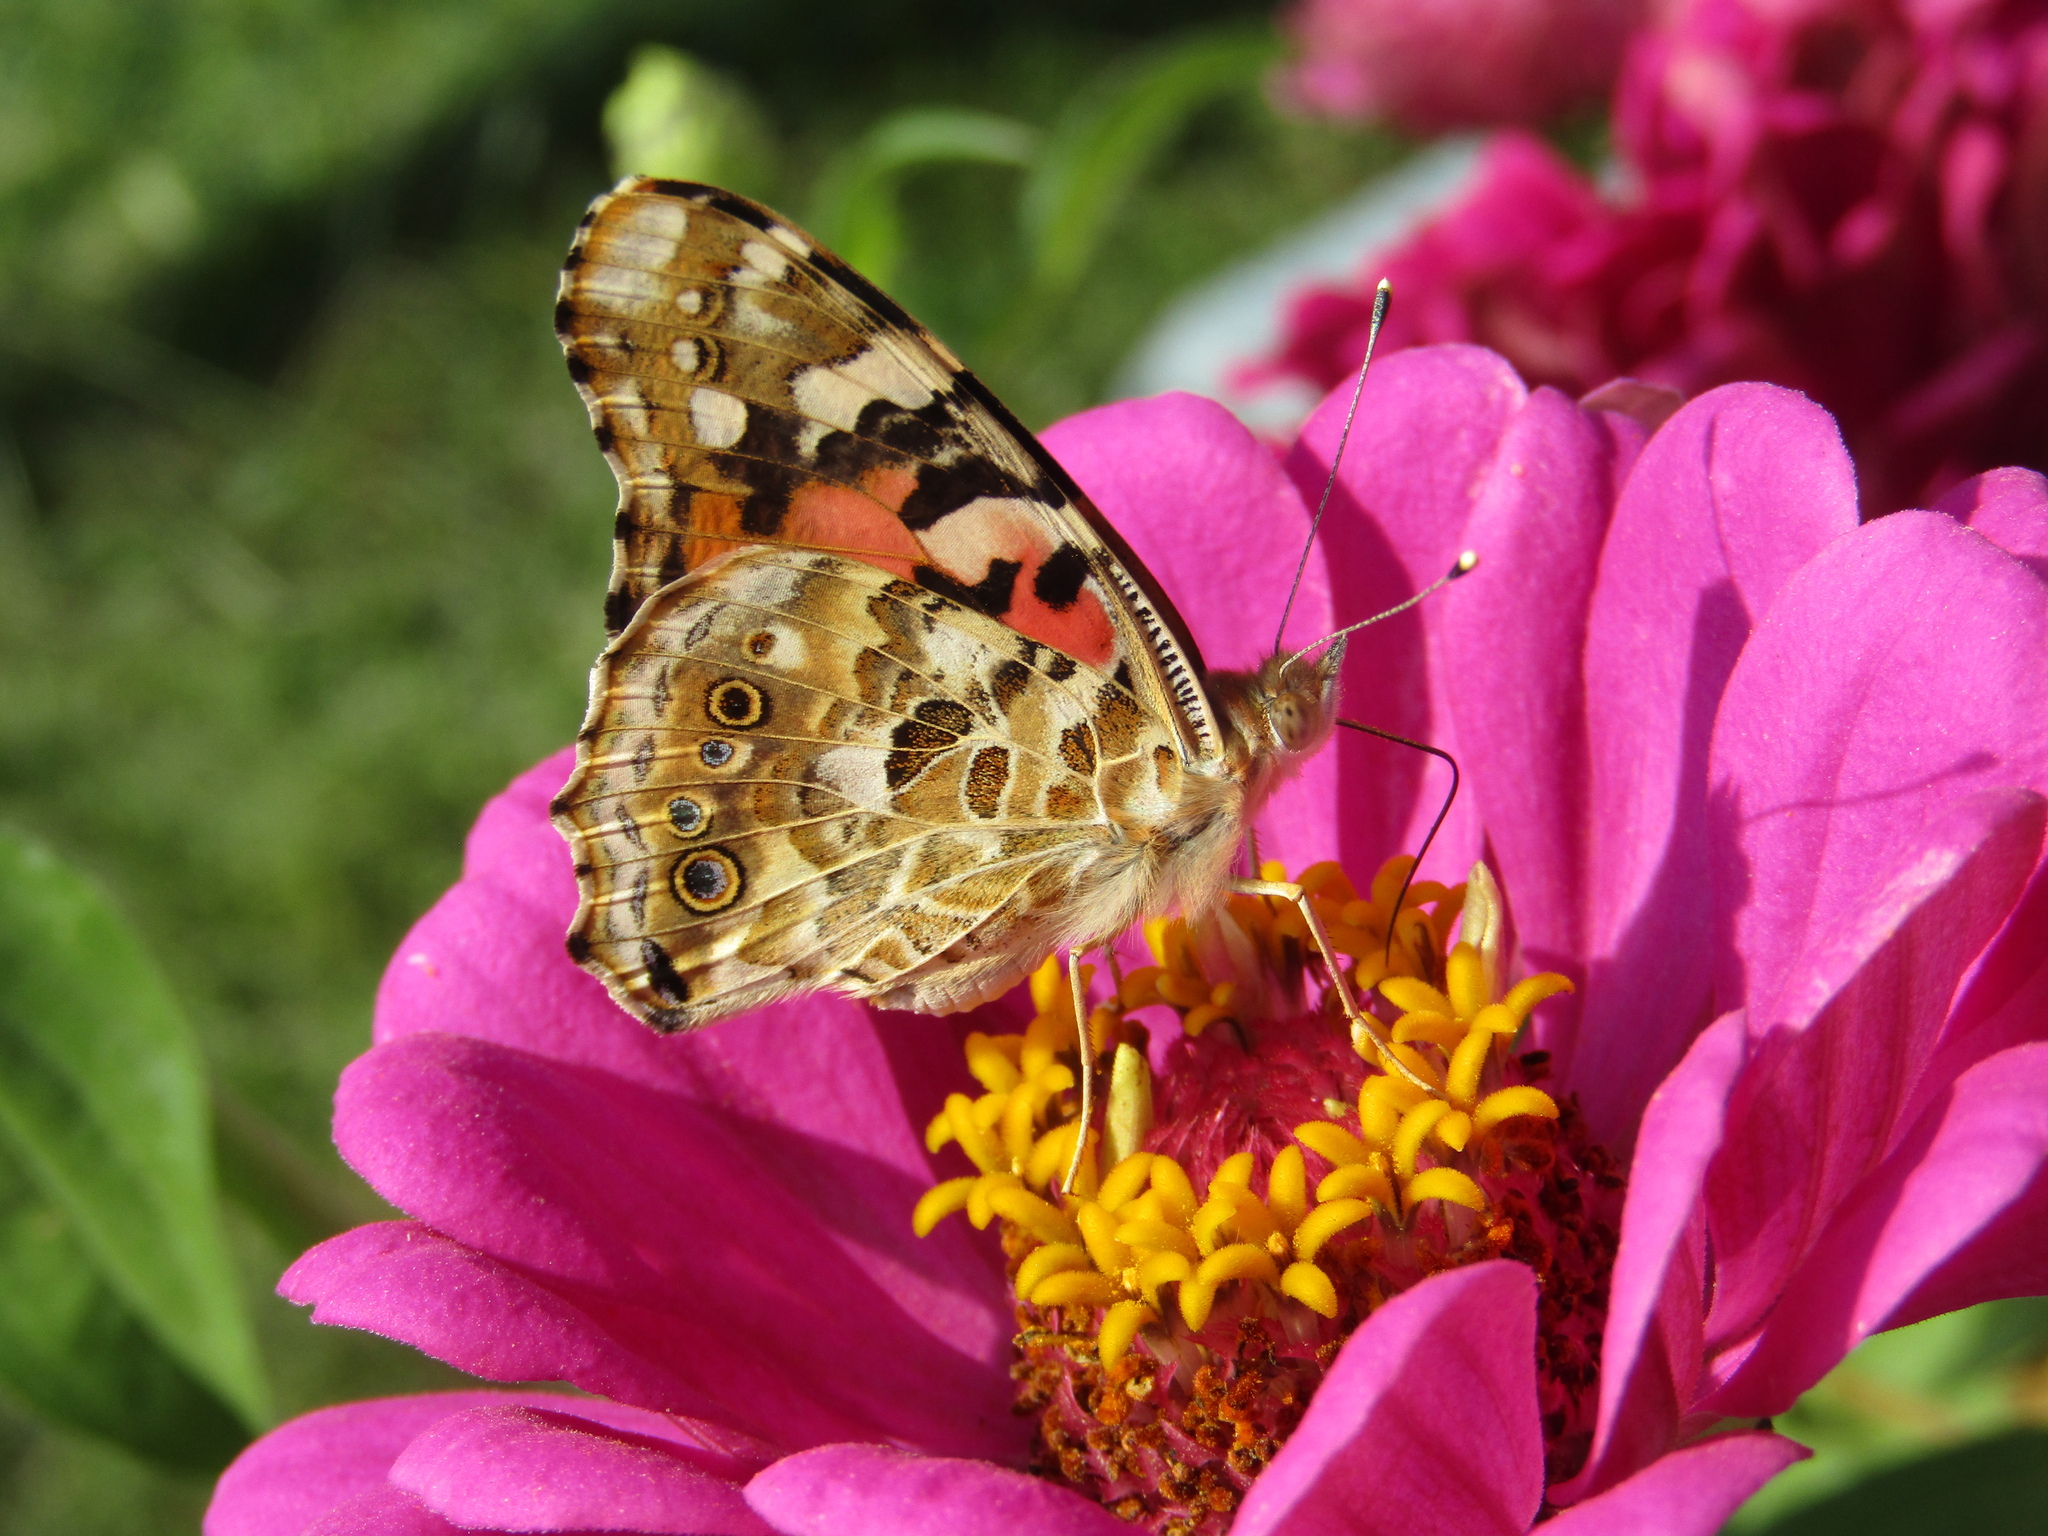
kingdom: Animalia
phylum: Arthropoda
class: Insecta
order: Lepidoptera
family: Nymphalidae
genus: Vanessa
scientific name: Vanessa cardui
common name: Painted lady
